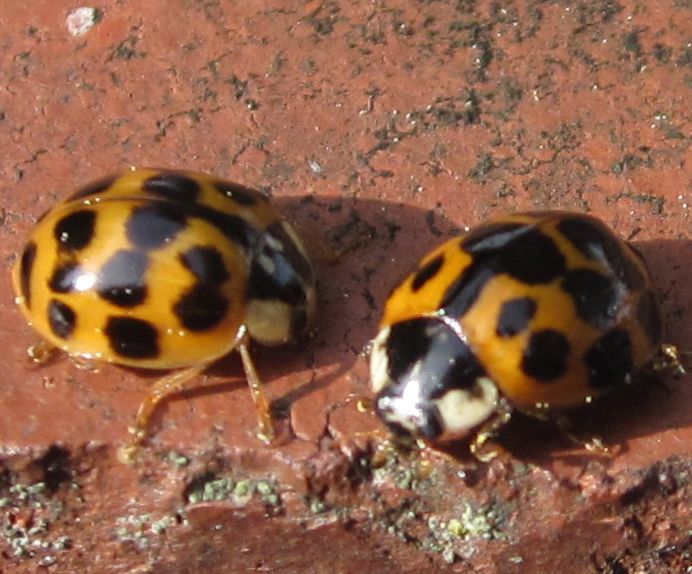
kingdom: Animalia
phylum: Arthropoda
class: Insecta
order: Coleoptera
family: Coccinellidae
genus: Harmonia
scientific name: Harmonia axyridis
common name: Harlequin ladybird
